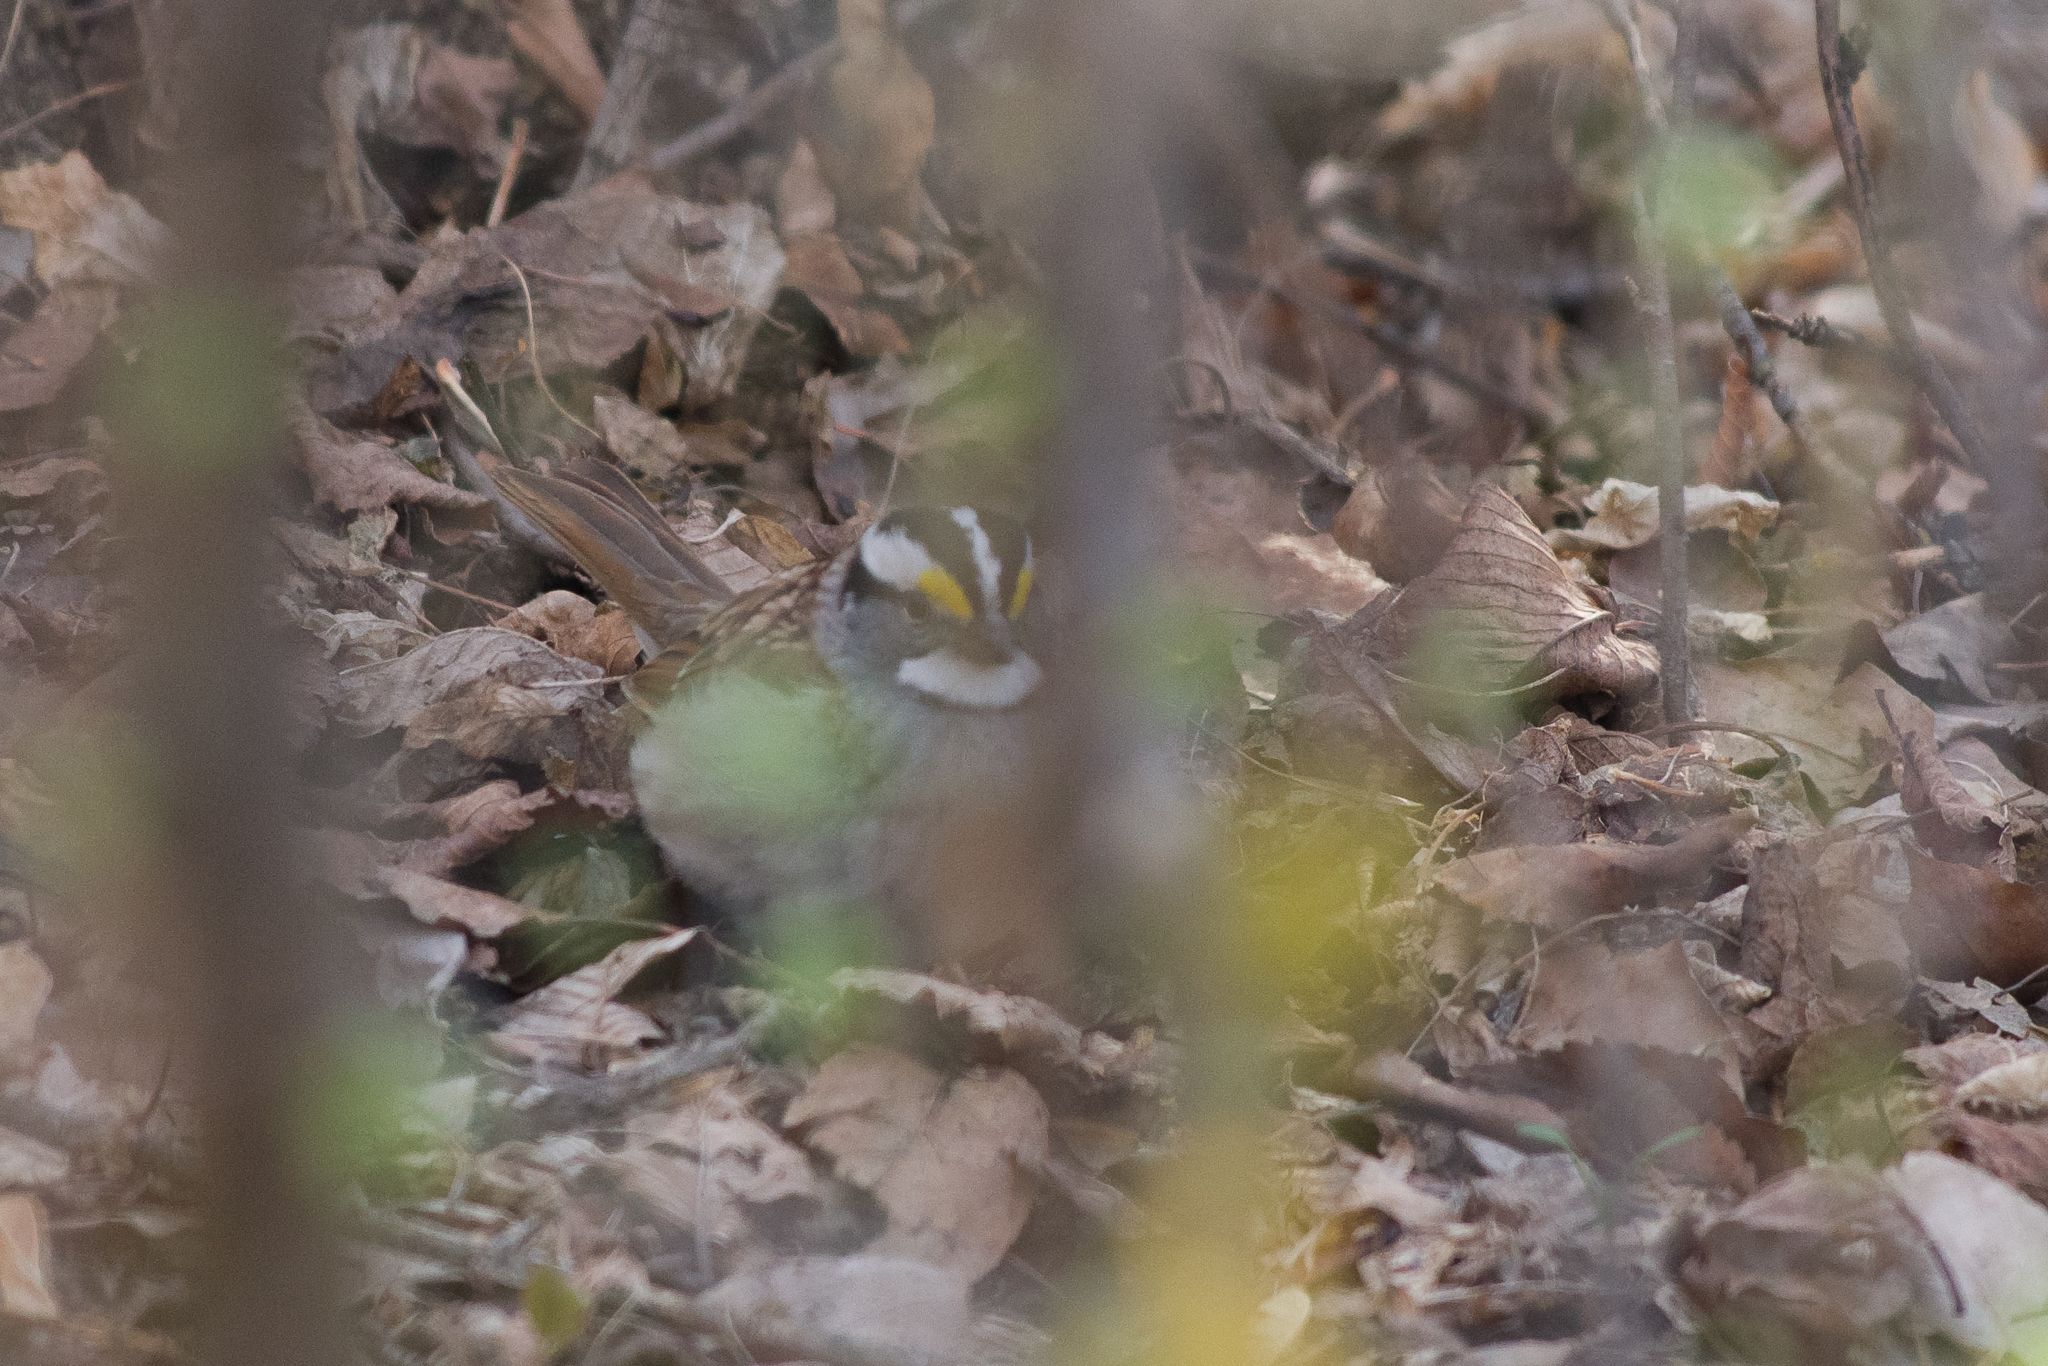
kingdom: Animalia
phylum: Chordata
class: Aves
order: Passeriformes
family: Passerellidae
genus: Zonotrichia
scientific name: Zonotrichia albicollis
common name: White-throated sparrow
